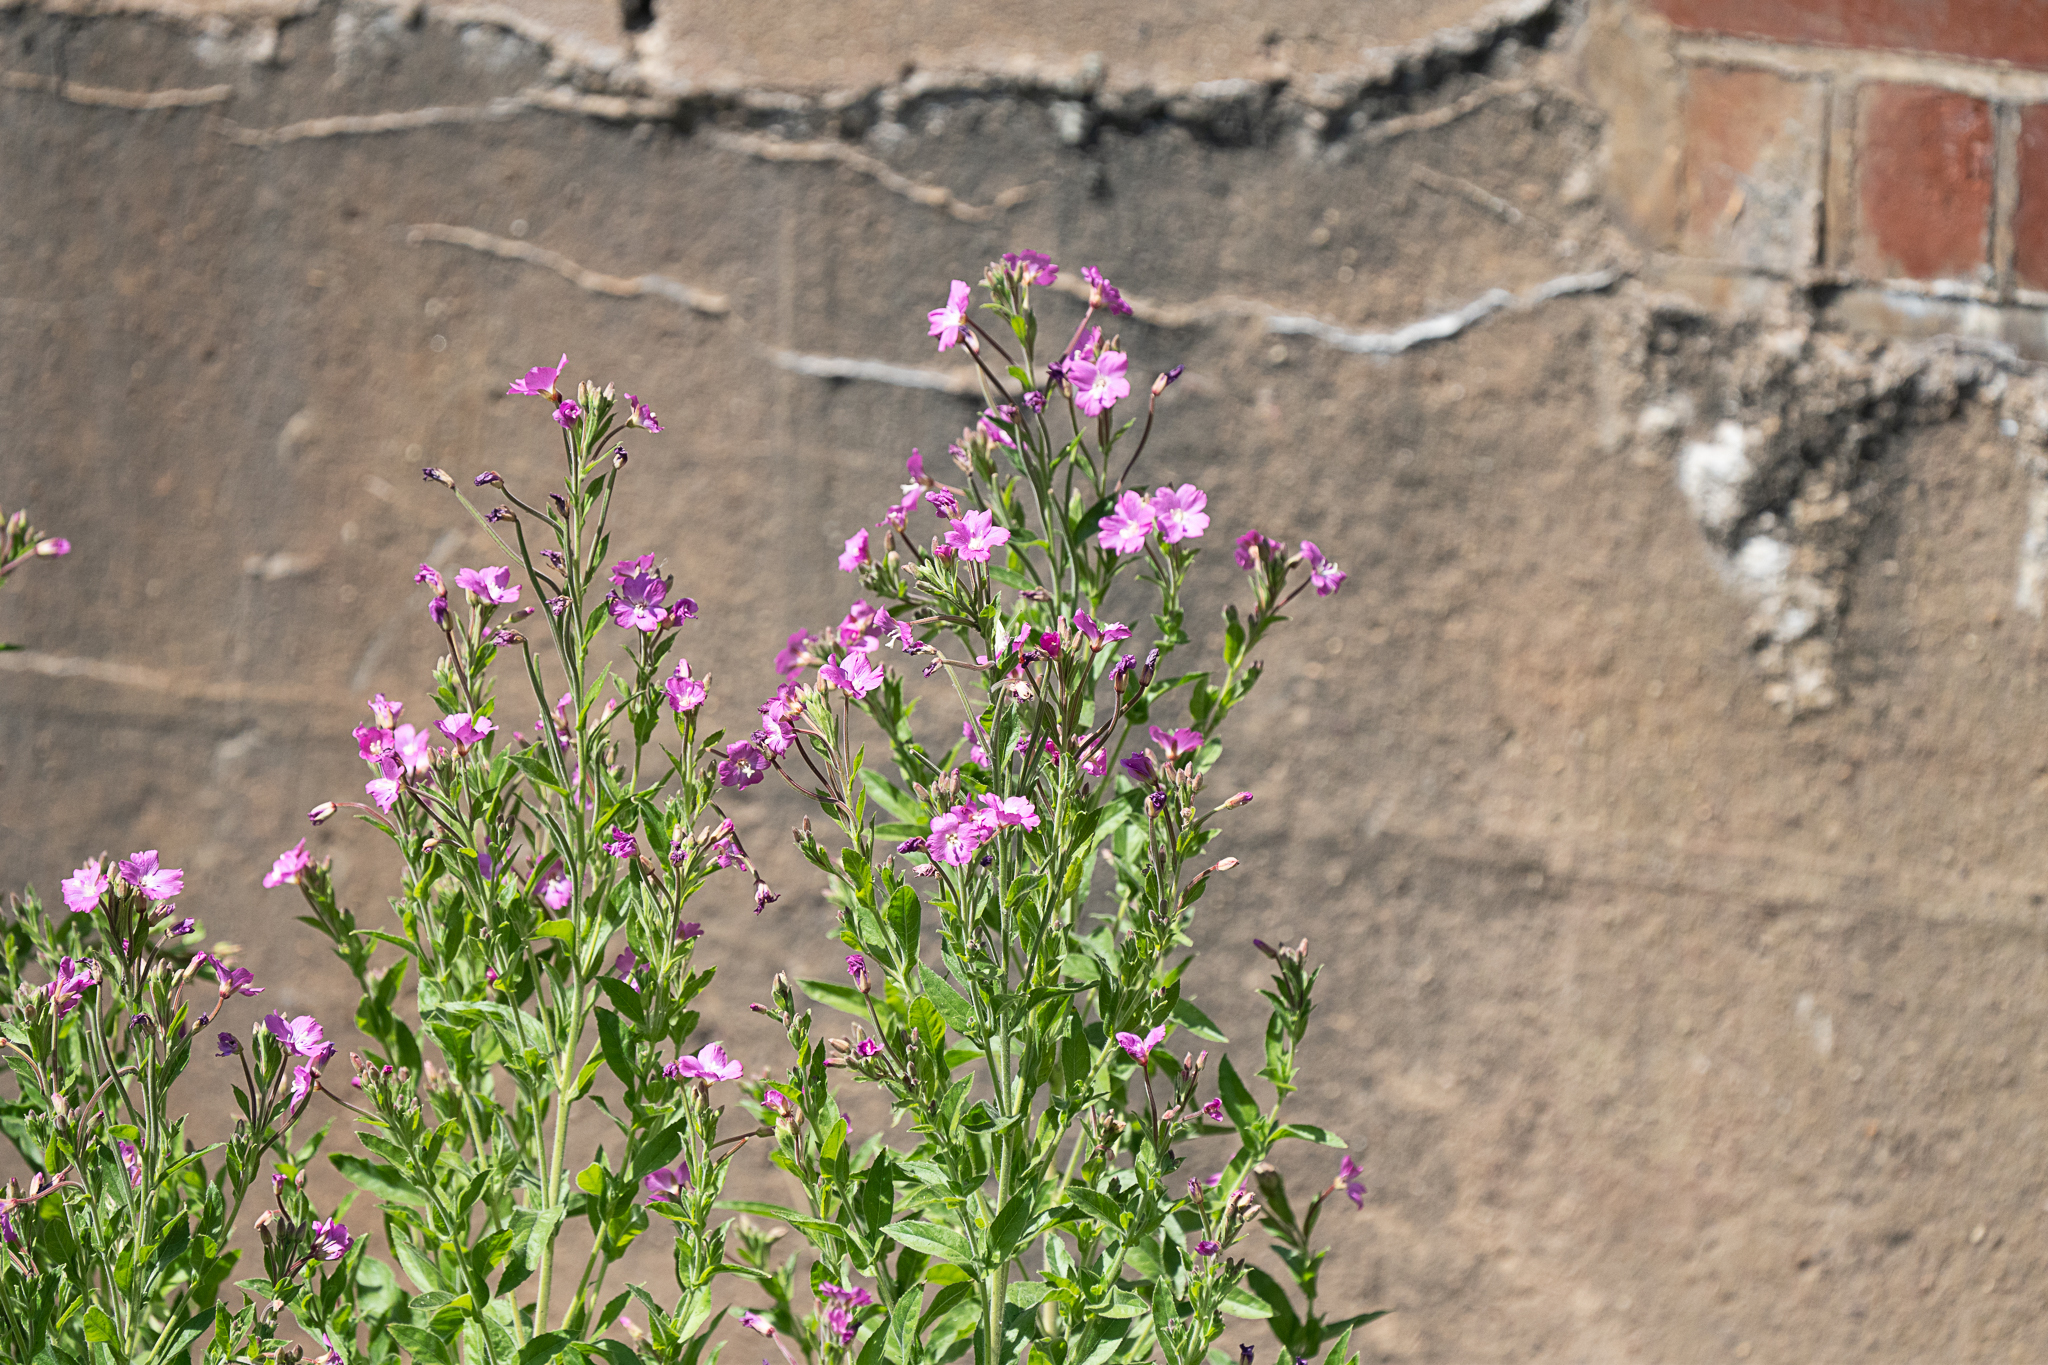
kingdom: Plantae
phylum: Tracheophyta
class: Magnoliopsida
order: Myrtales
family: Onagraceae
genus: Epilobium
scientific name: Epilobium hirsutum
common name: Great willowherb
